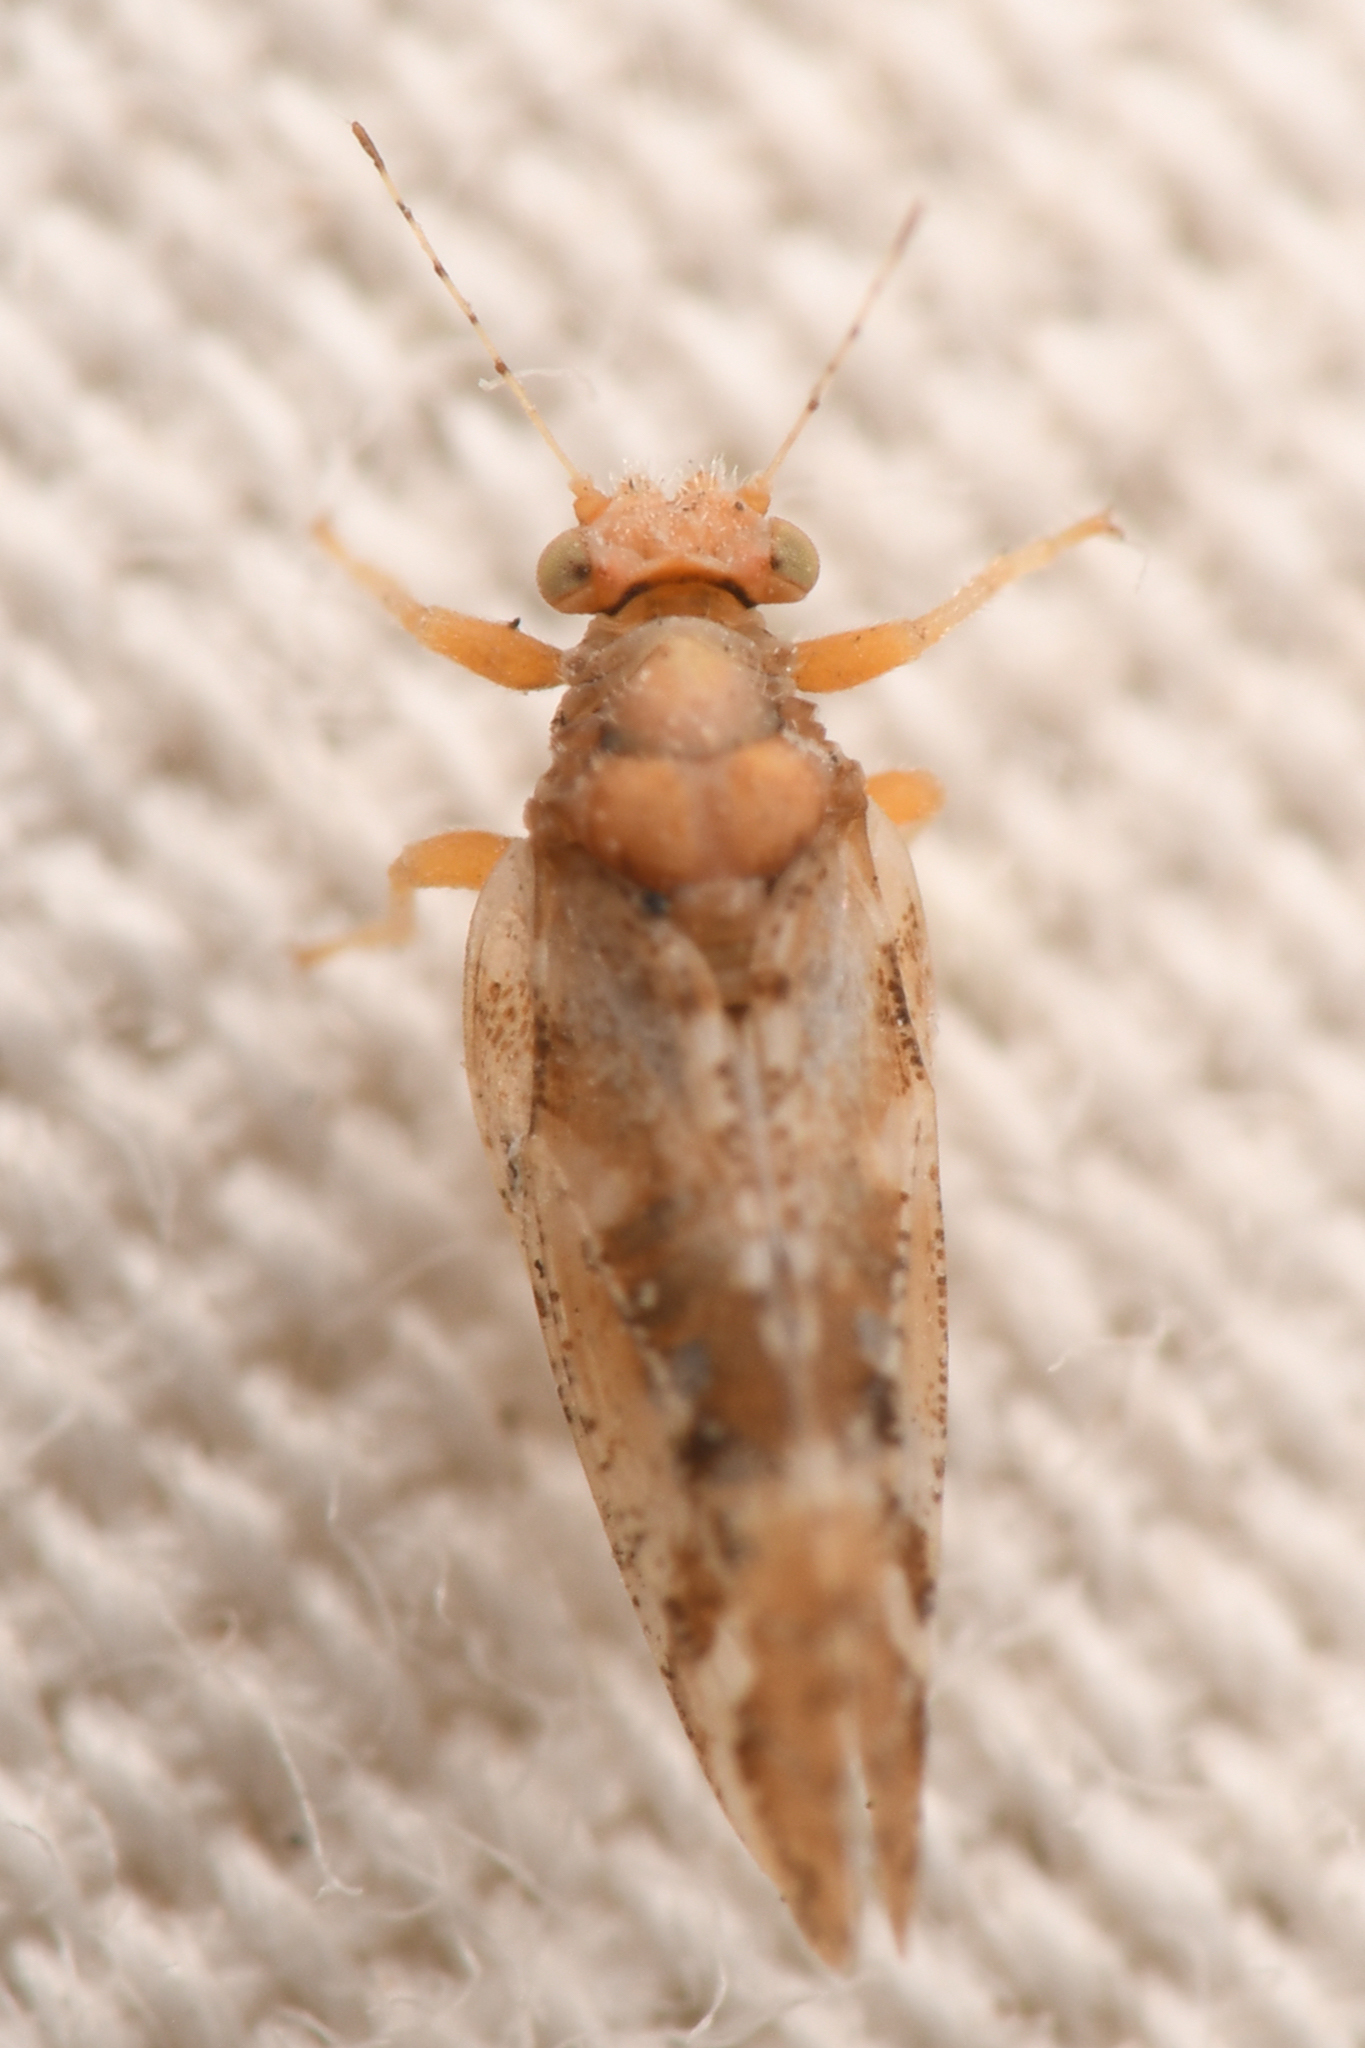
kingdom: Animalia
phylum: Arthropoda
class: Insecta
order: Hemiptera
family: Triozidae
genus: Bactericera
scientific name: Bactericera lobata
